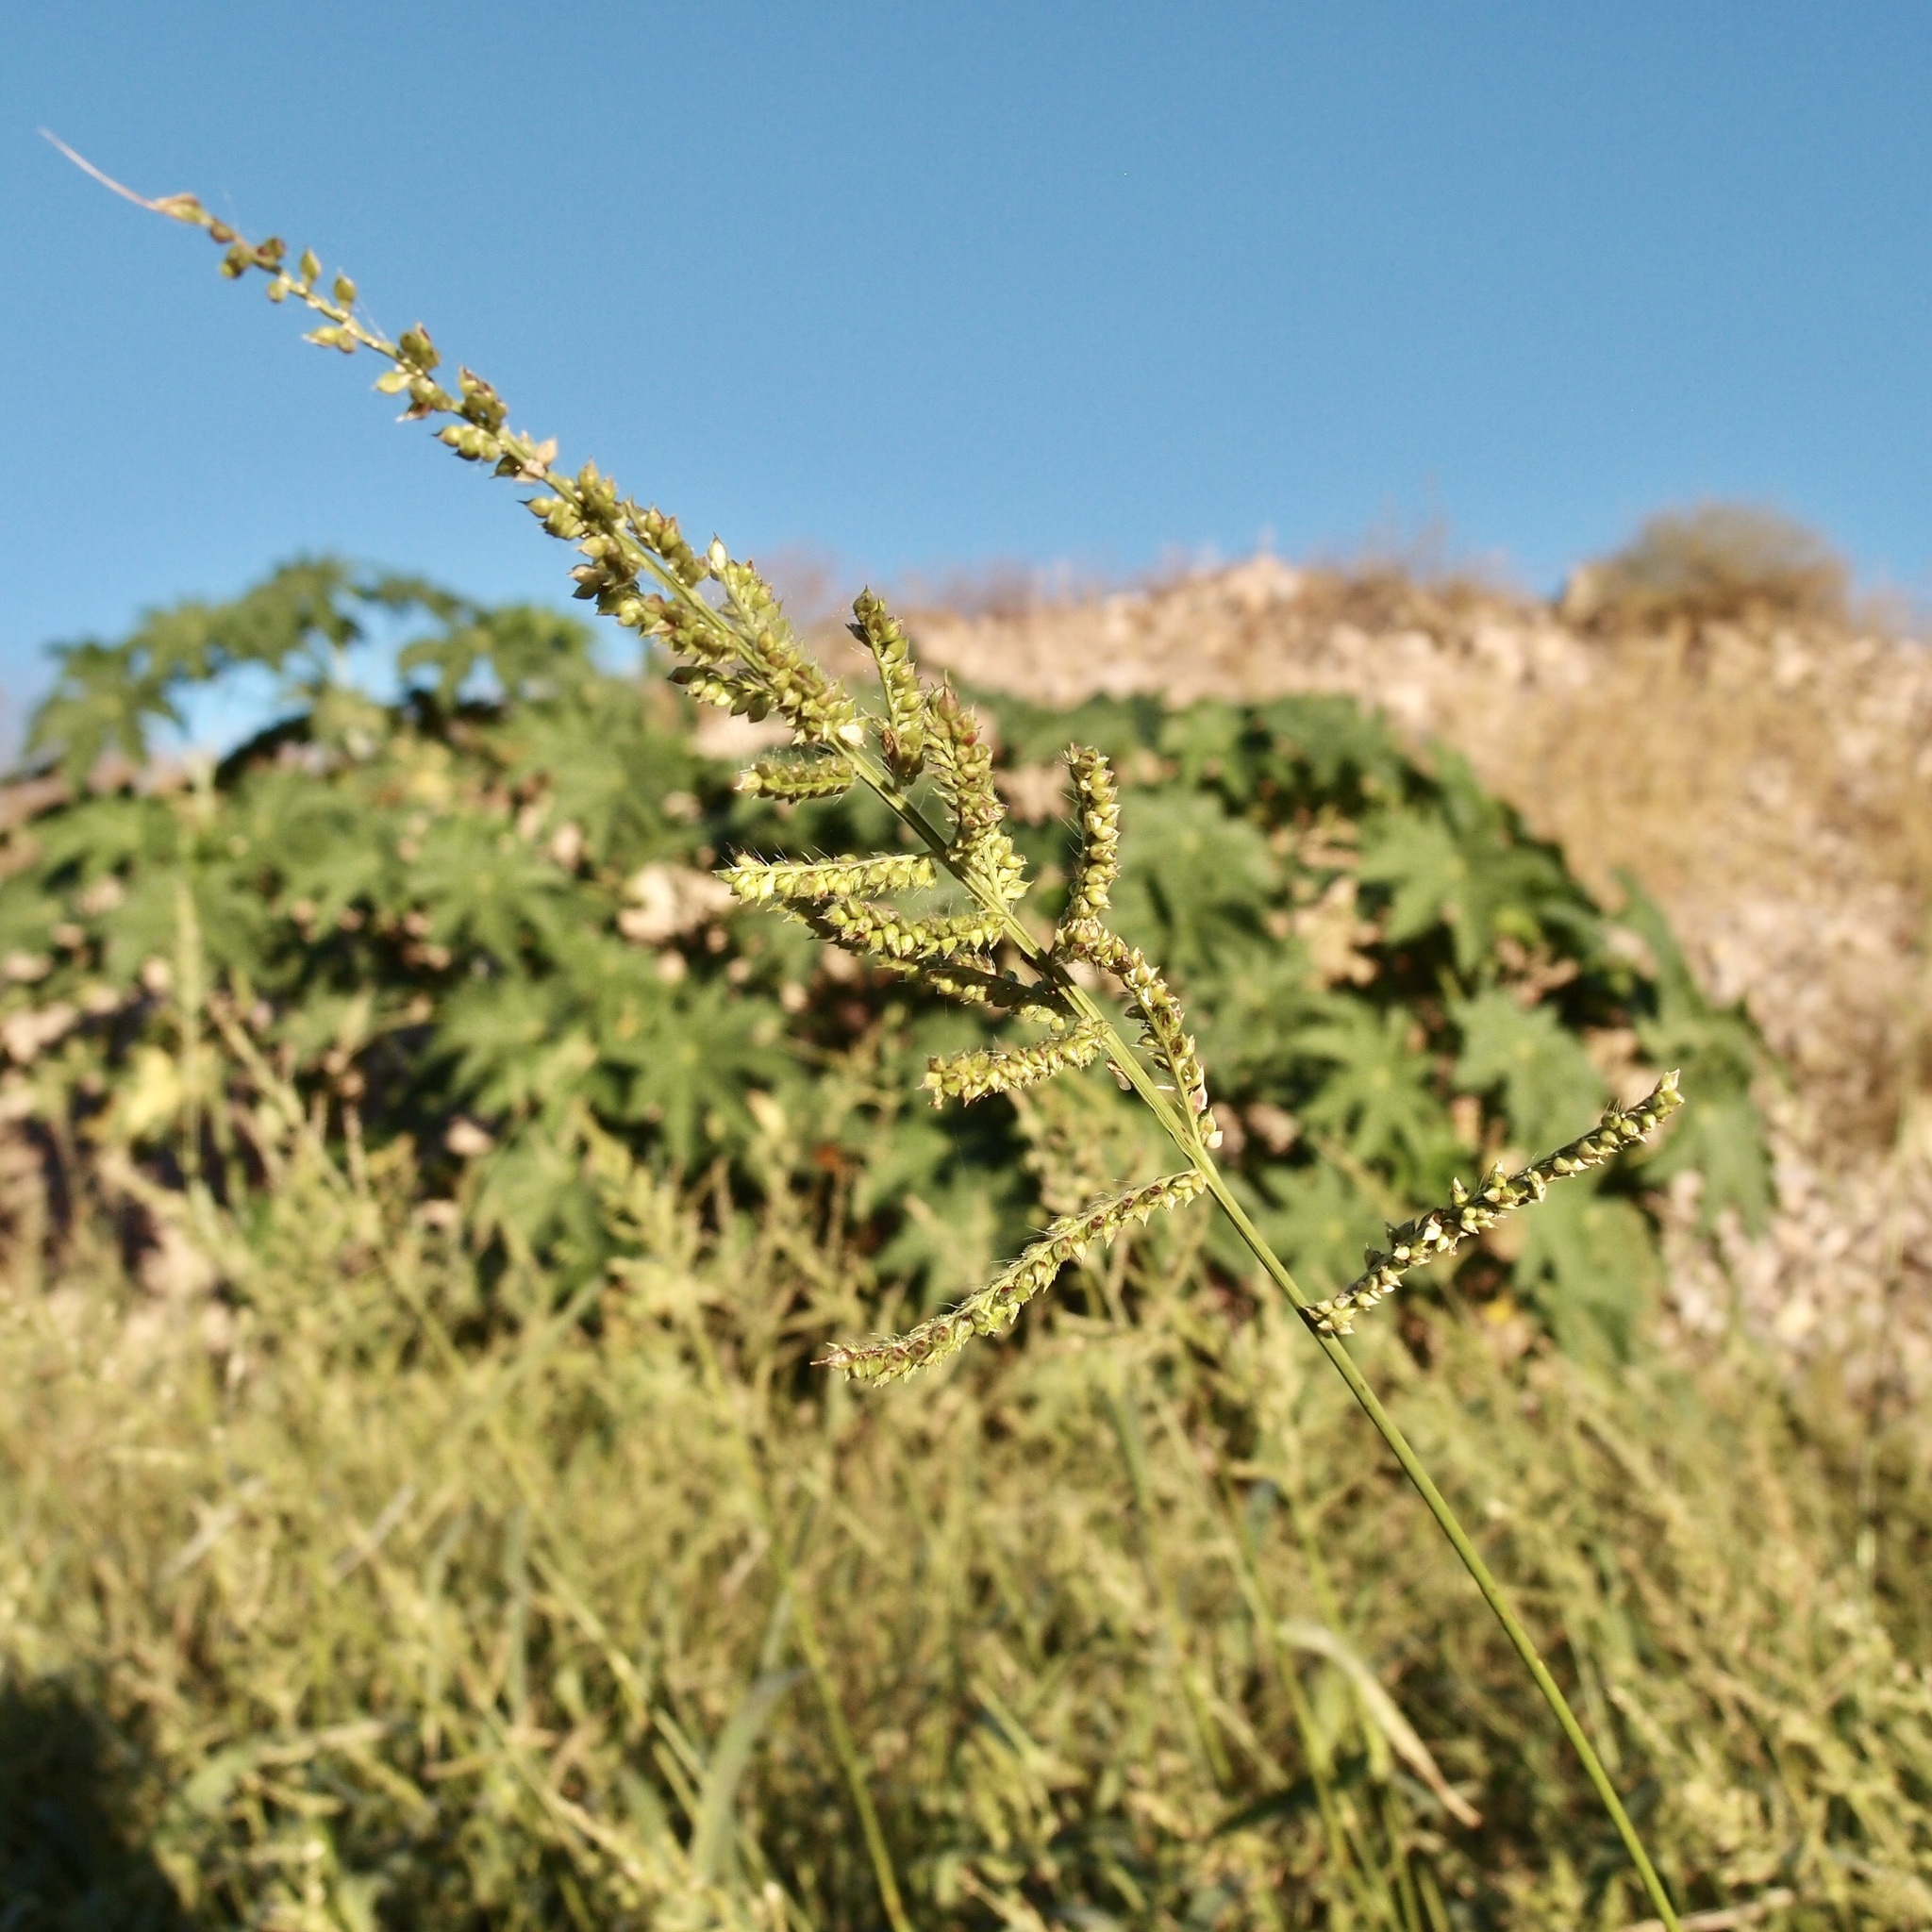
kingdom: Plantae
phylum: Tracheophyta
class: Liliopsida
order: Poales
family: Poaceae
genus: Echinochloa
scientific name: Echinochloa crus-galli
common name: Cockspur
